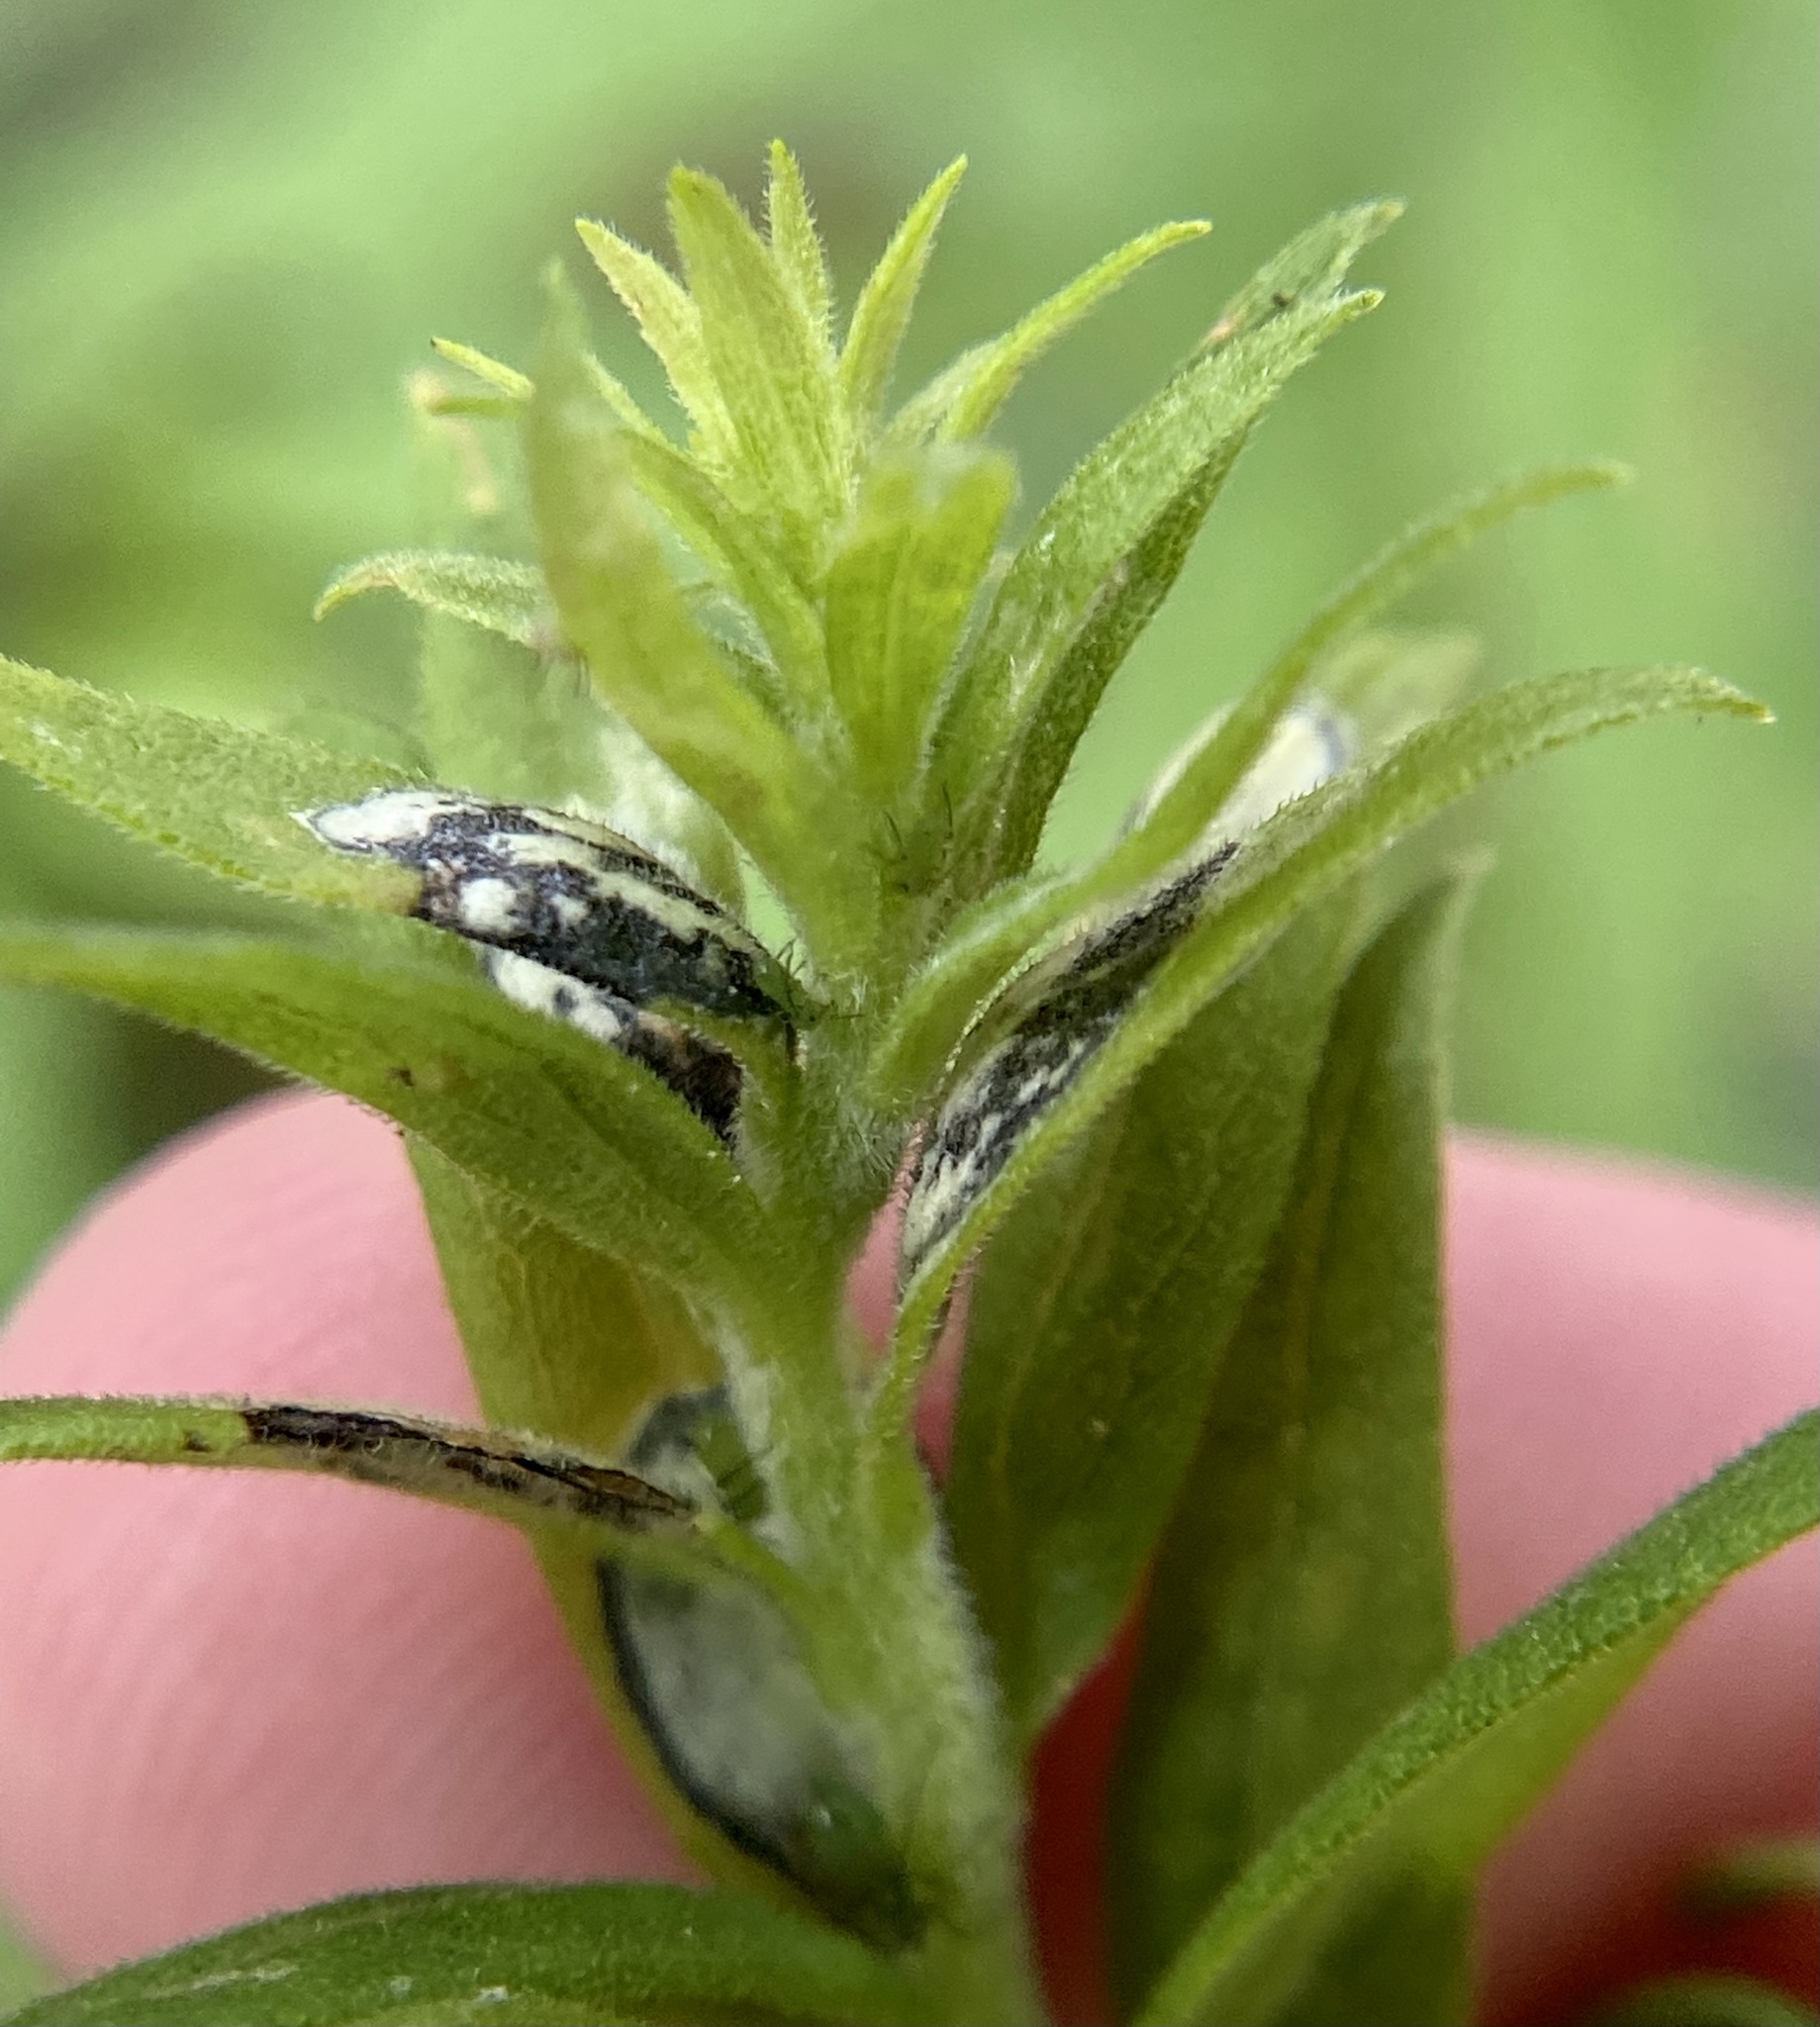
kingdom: Animalia
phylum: Arthropoda
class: Insecta
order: Diptera
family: Cecidomyiidae
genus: Asteromyia
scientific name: Asteromyia carbonifera
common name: Carbonifera goldenrod gall midge
